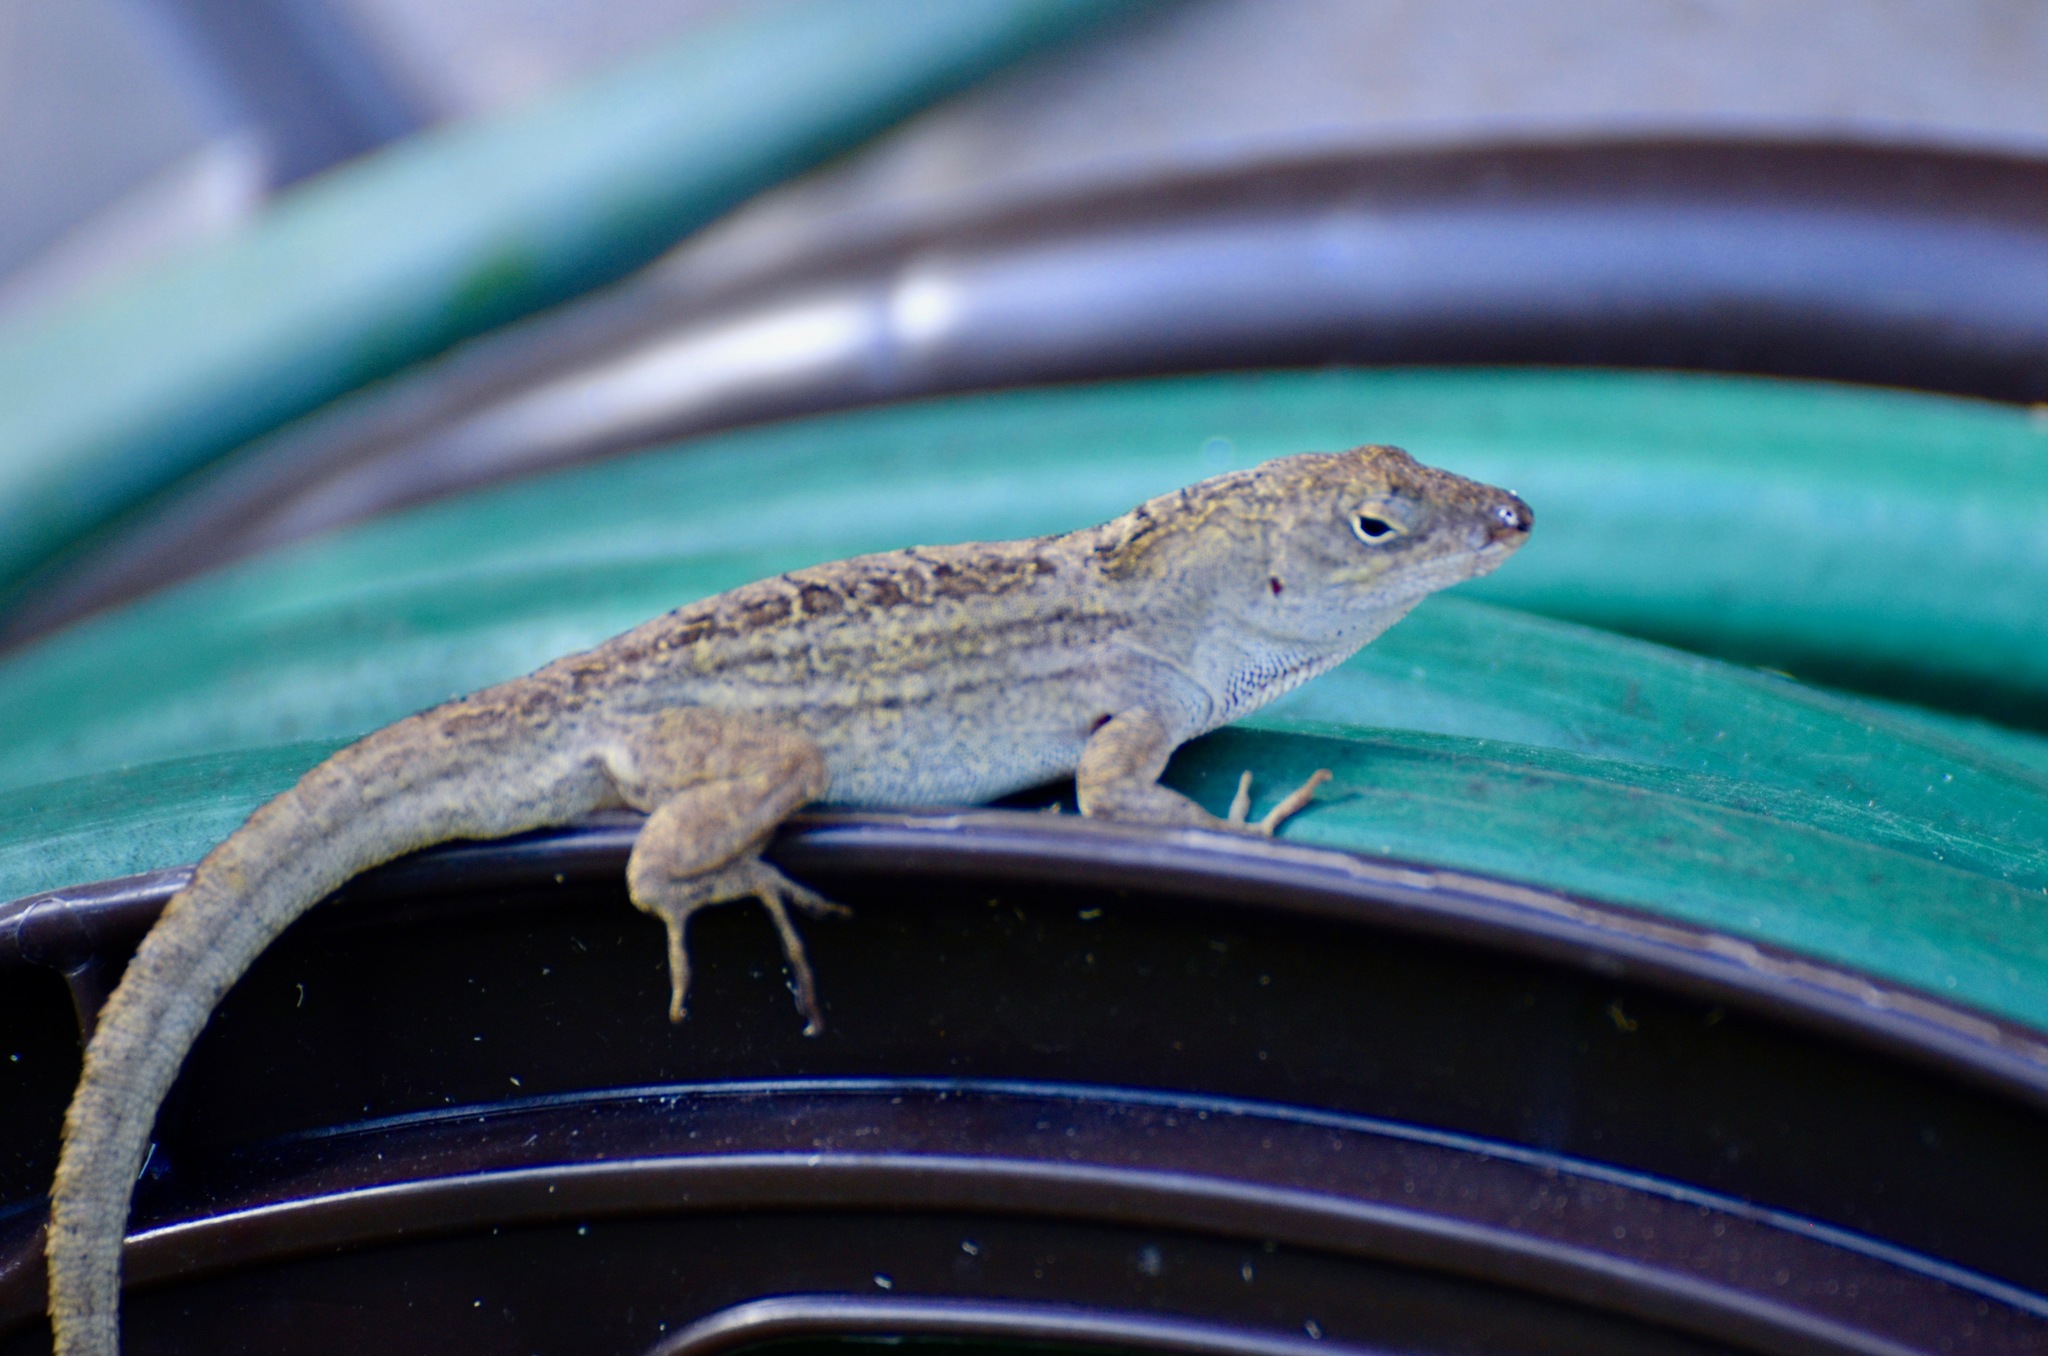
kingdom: Animalia
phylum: Chordata
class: Squamata
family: Dactyloidae
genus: Anolis
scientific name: Anolis sagrei
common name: Brown anole
